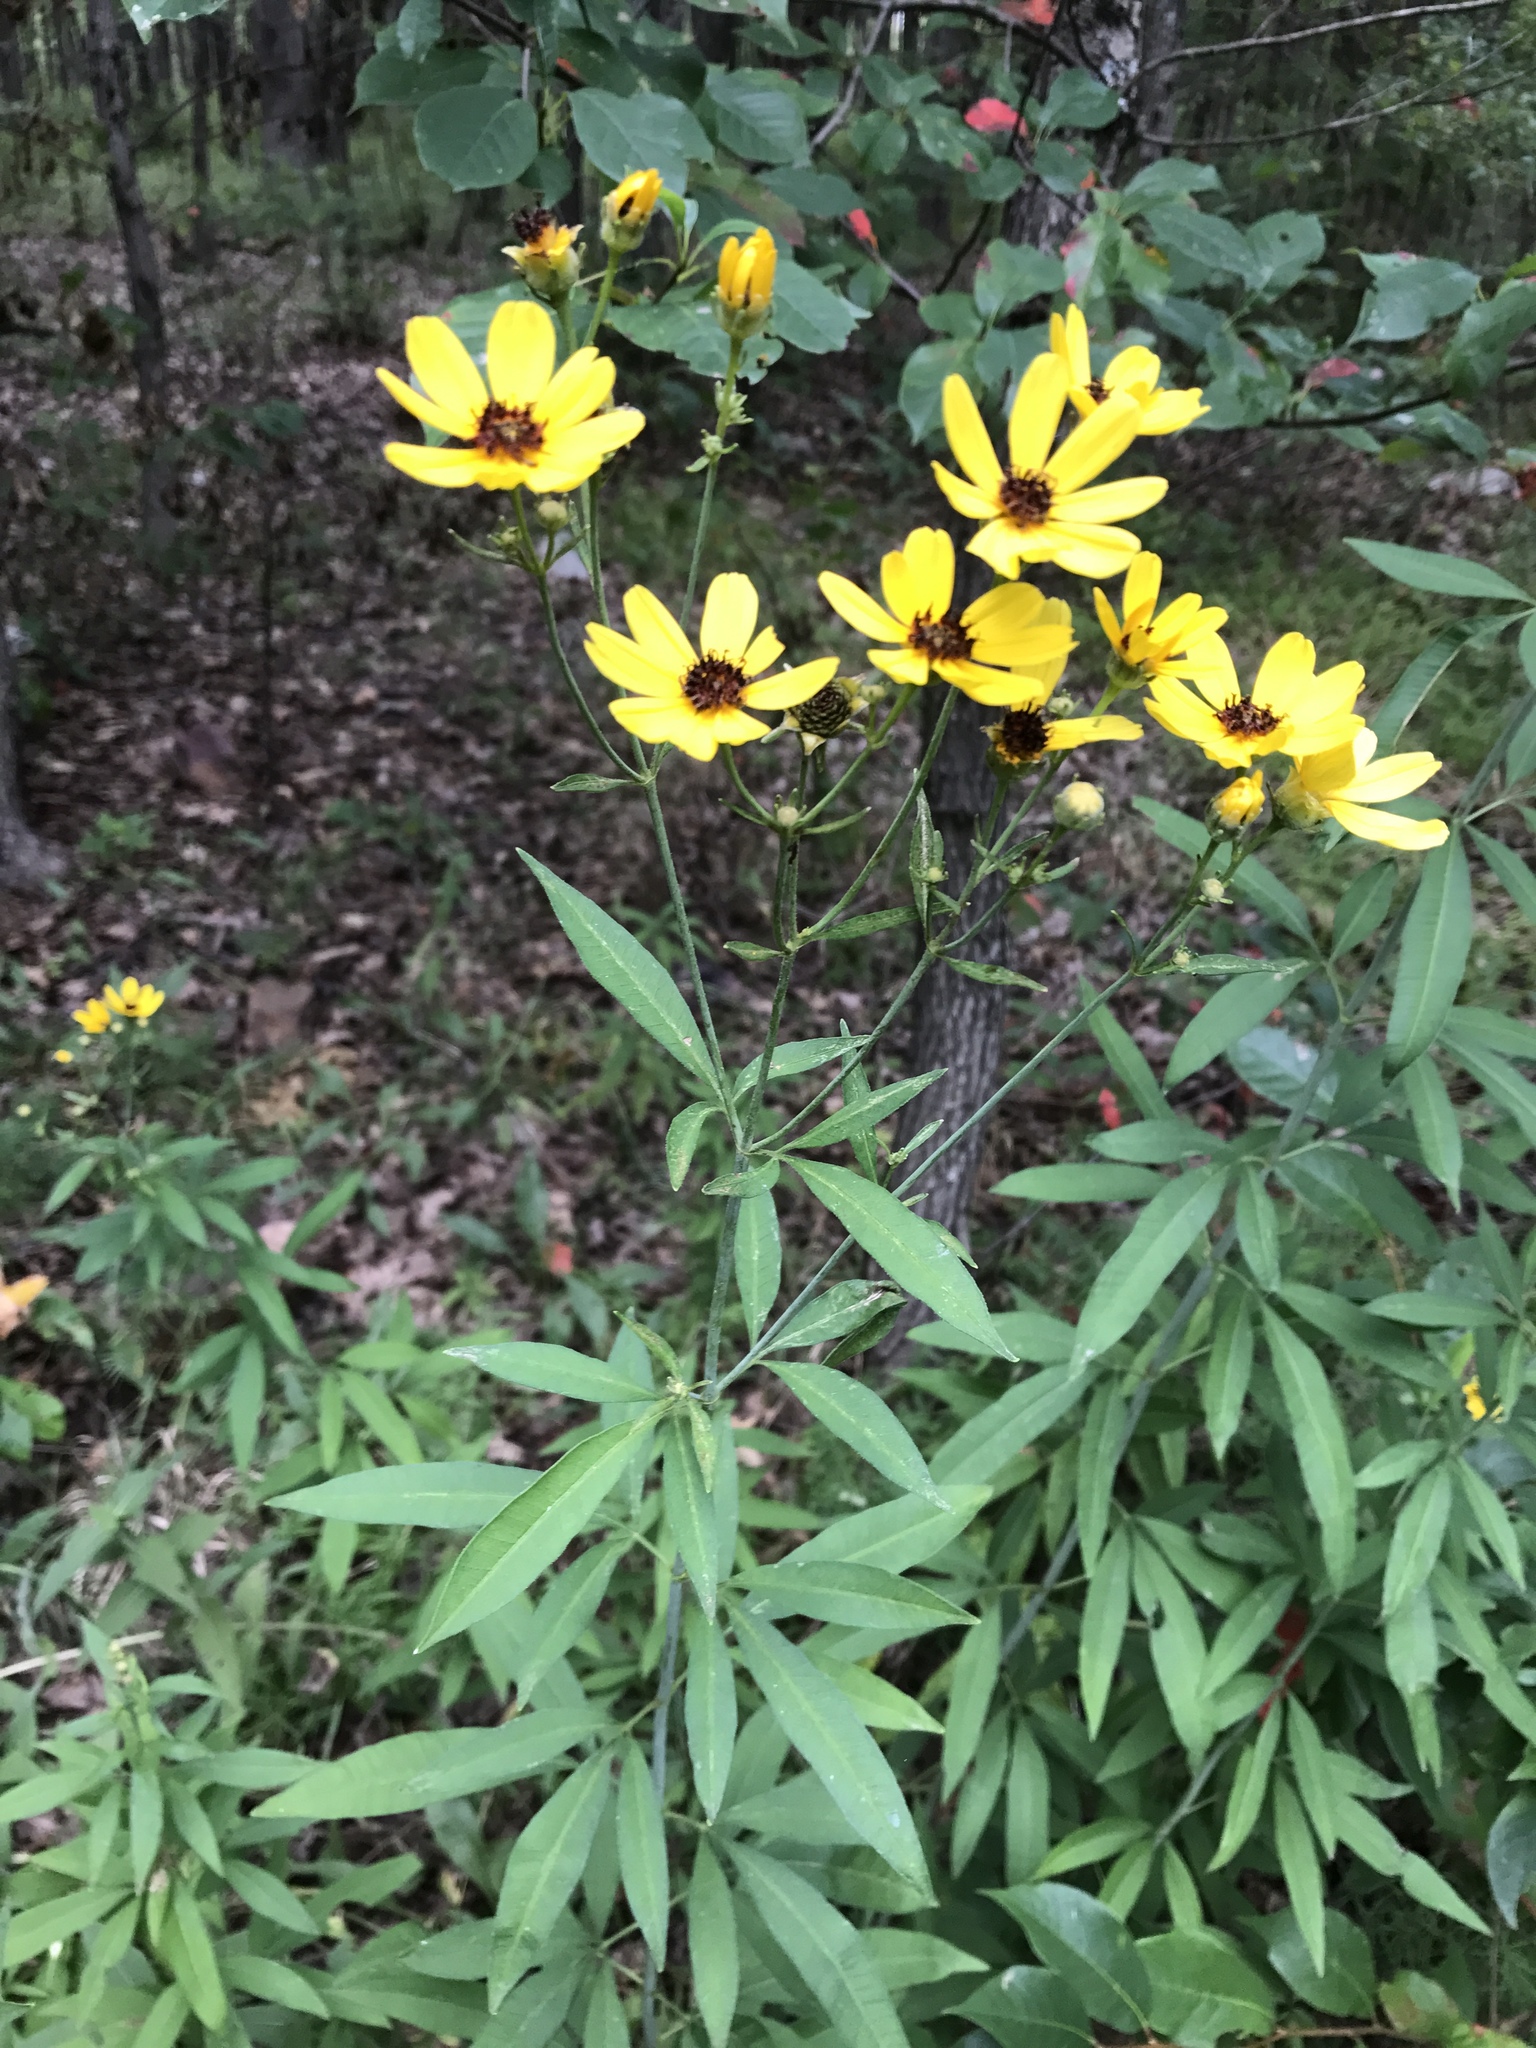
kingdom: Plantae
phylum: Tracheophyta
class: Magnoliopsida
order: Asterales
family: Asteraceae
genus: Coreopsis
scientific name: Coreopsis tripteris
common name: Tall coreopsis
